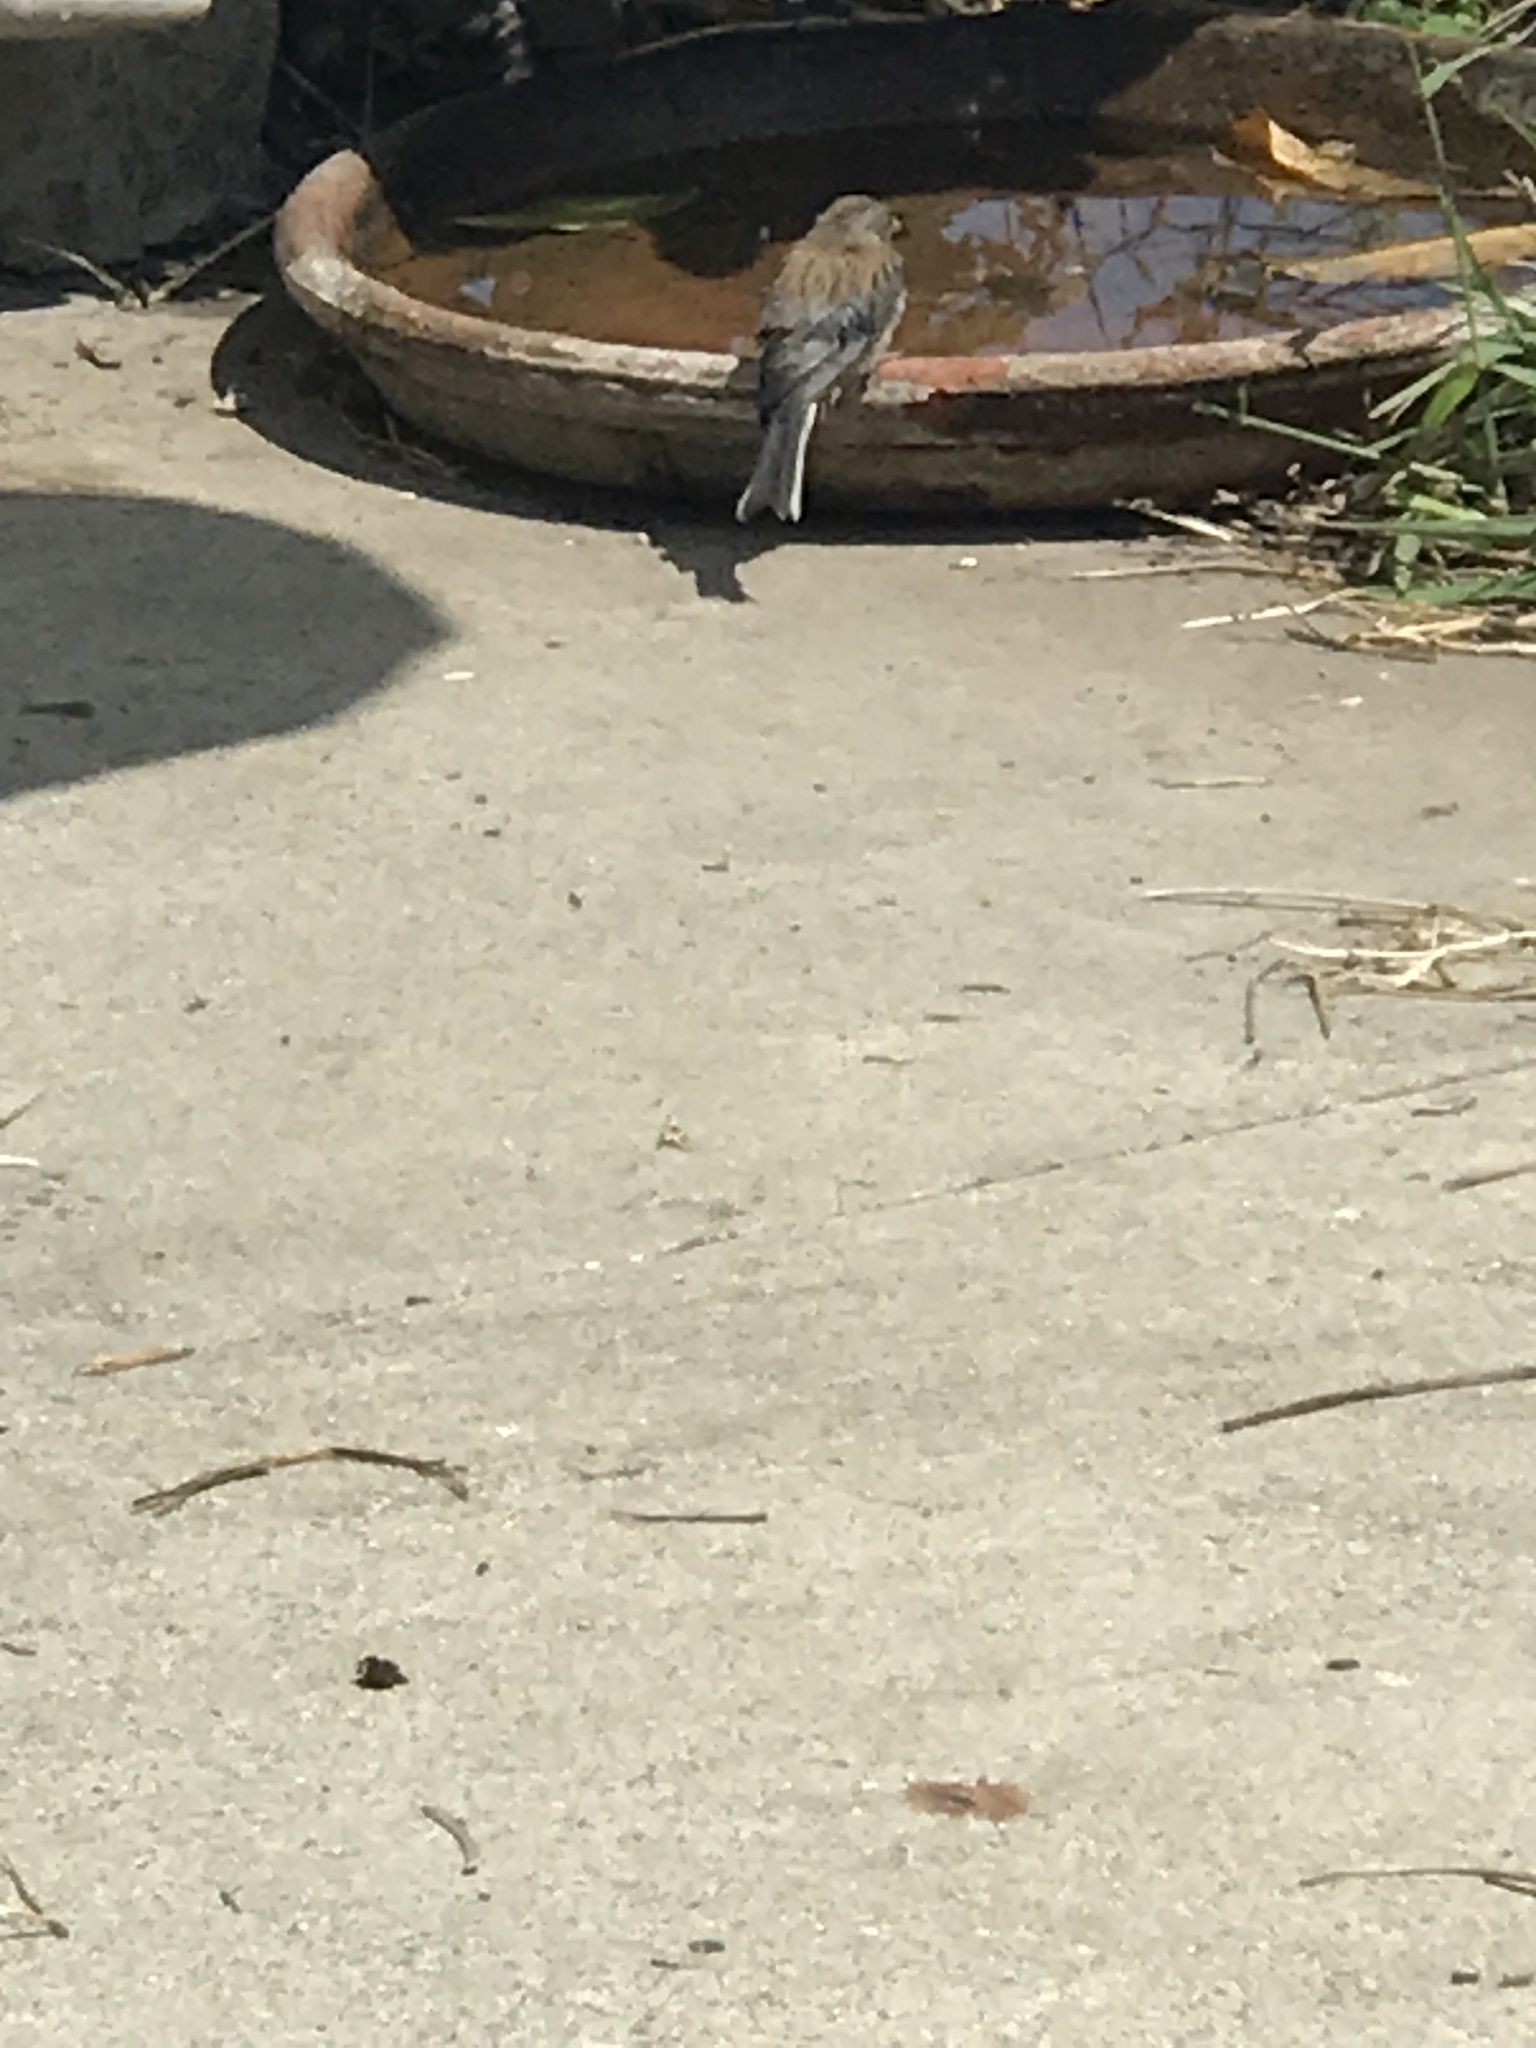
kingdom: Animalia
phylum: Chordata
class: Aves
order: Passeriformes
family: Passerellidae
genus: Junco
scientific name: Junco hyemalis
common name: Dark-eyed junco
